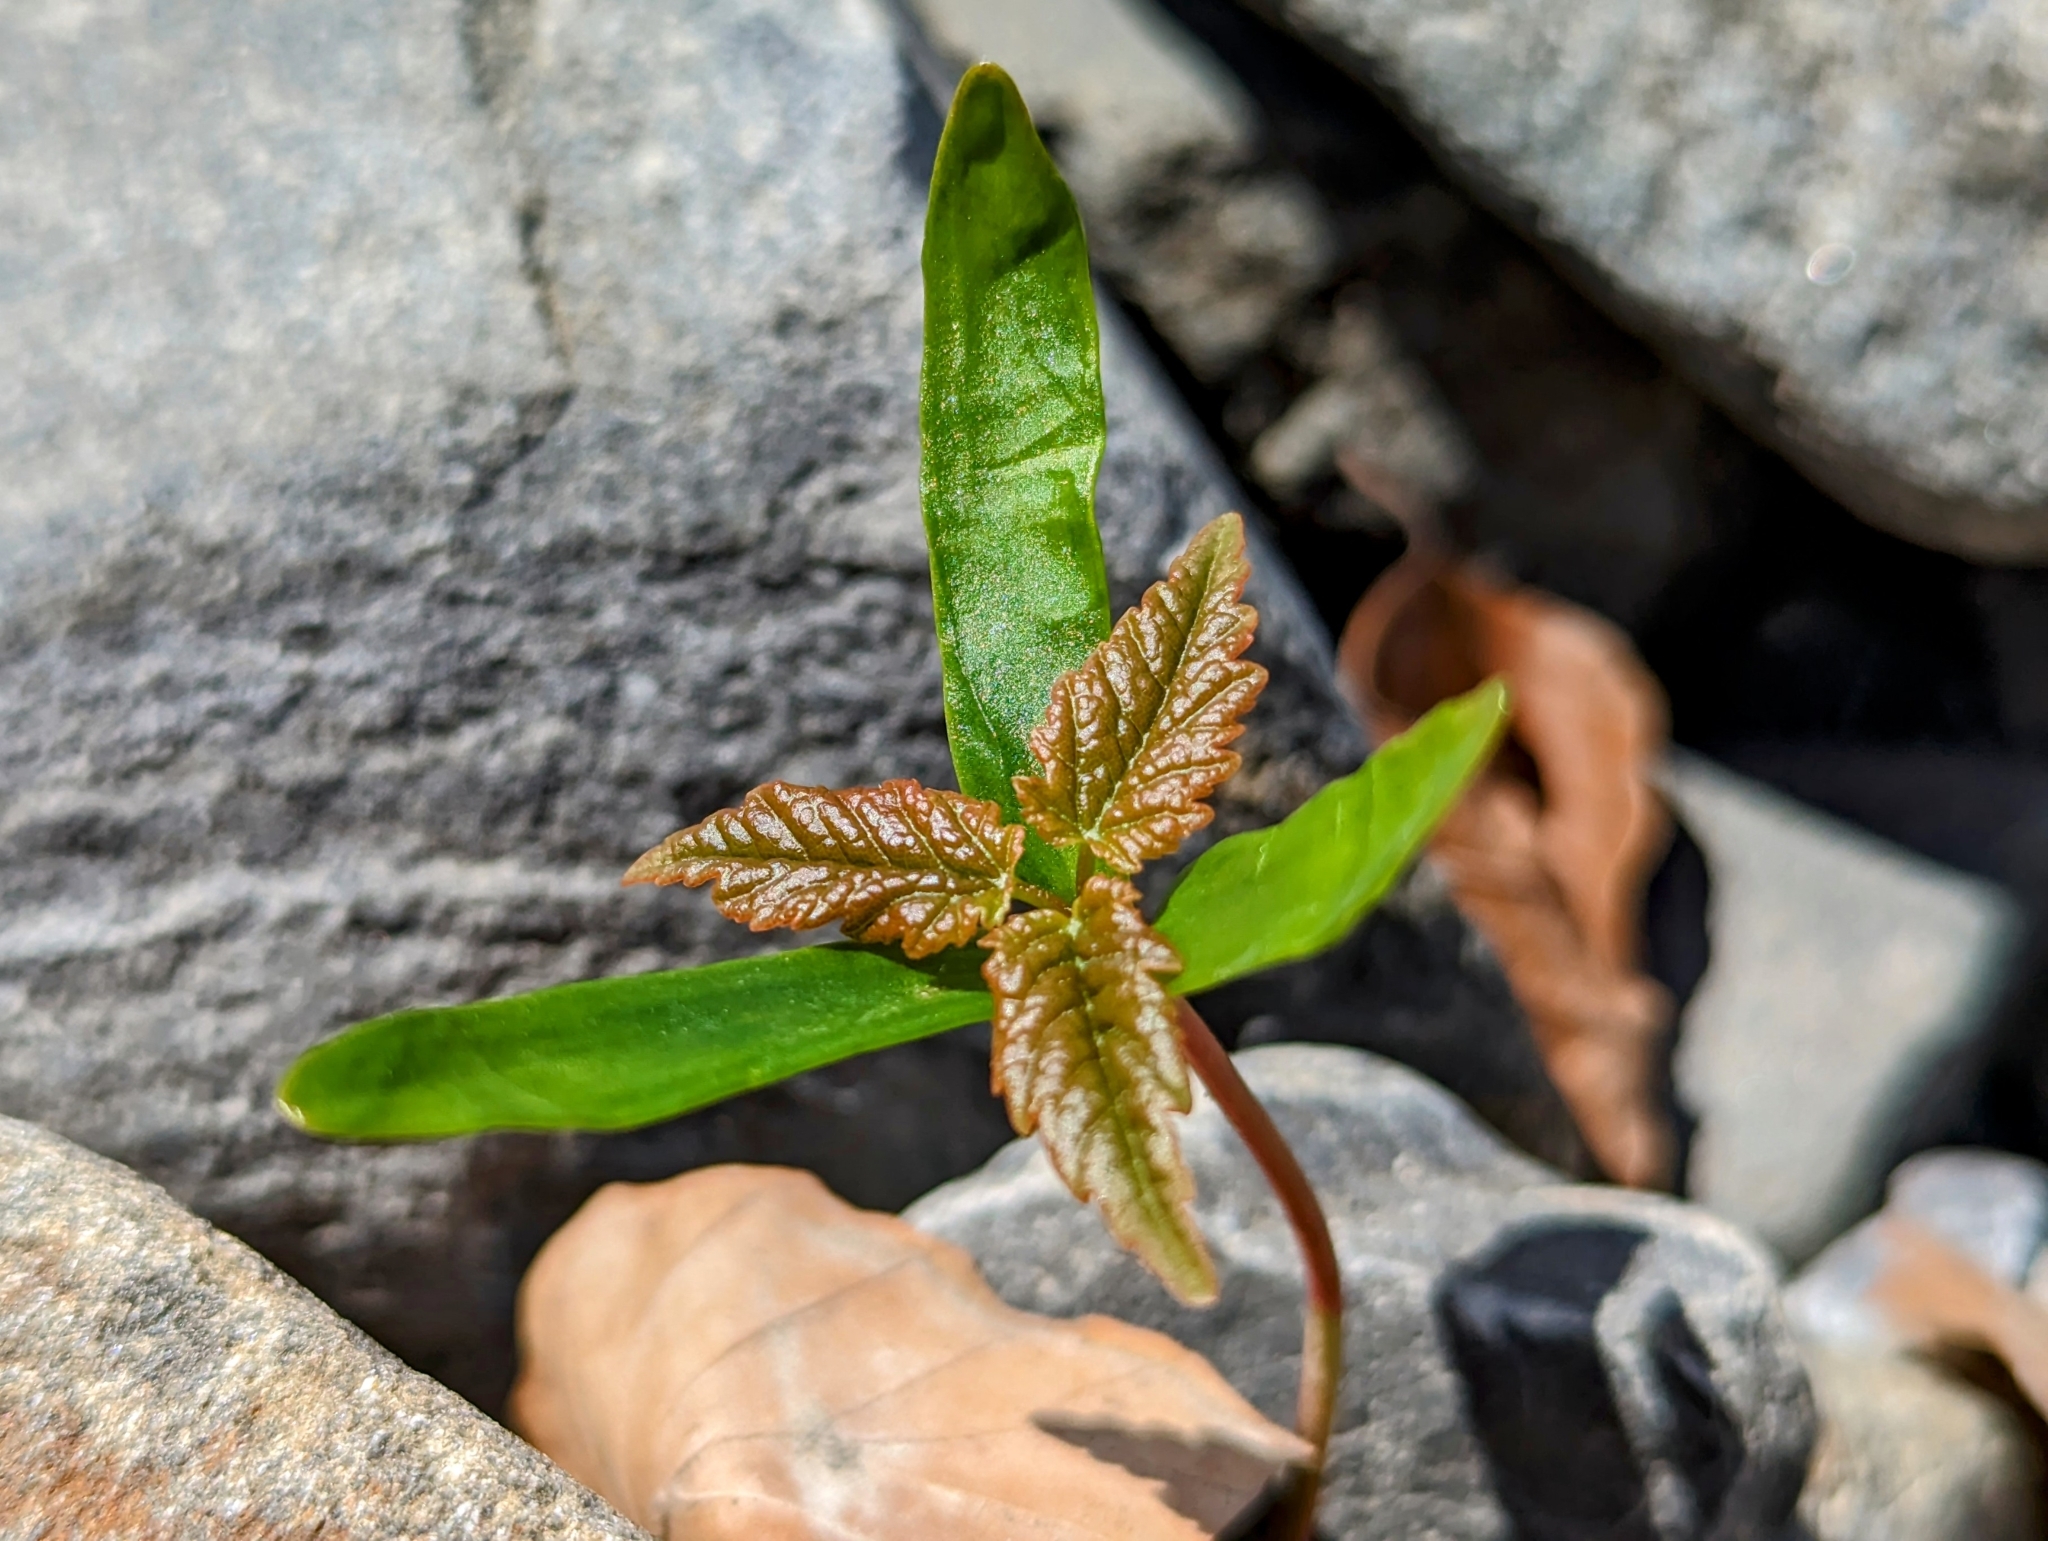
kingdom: Plantae
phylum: Tracheophyta
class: Magnoliopsida
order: Sapindales
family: Sapindaceae
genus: Acer
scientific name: Acer pseudoplatanus
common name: Sycamore
